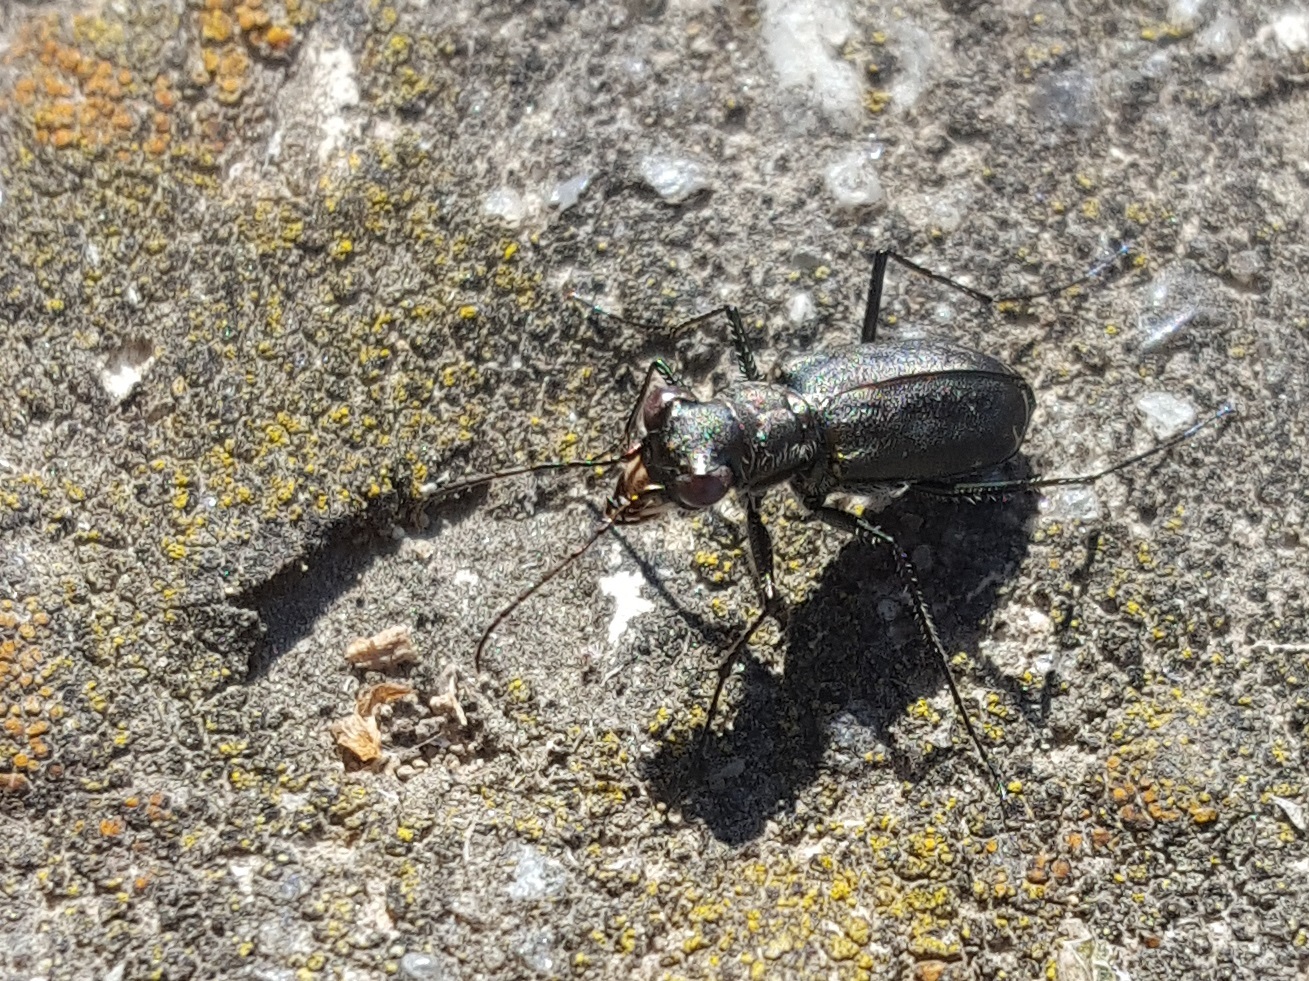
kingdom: Animalia
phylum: Arthropoda
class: Insecta
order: Coleoptera
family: Carabidae
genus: Cicindela
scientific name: Cicindela punctulata
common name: Punctured tiger beetle
